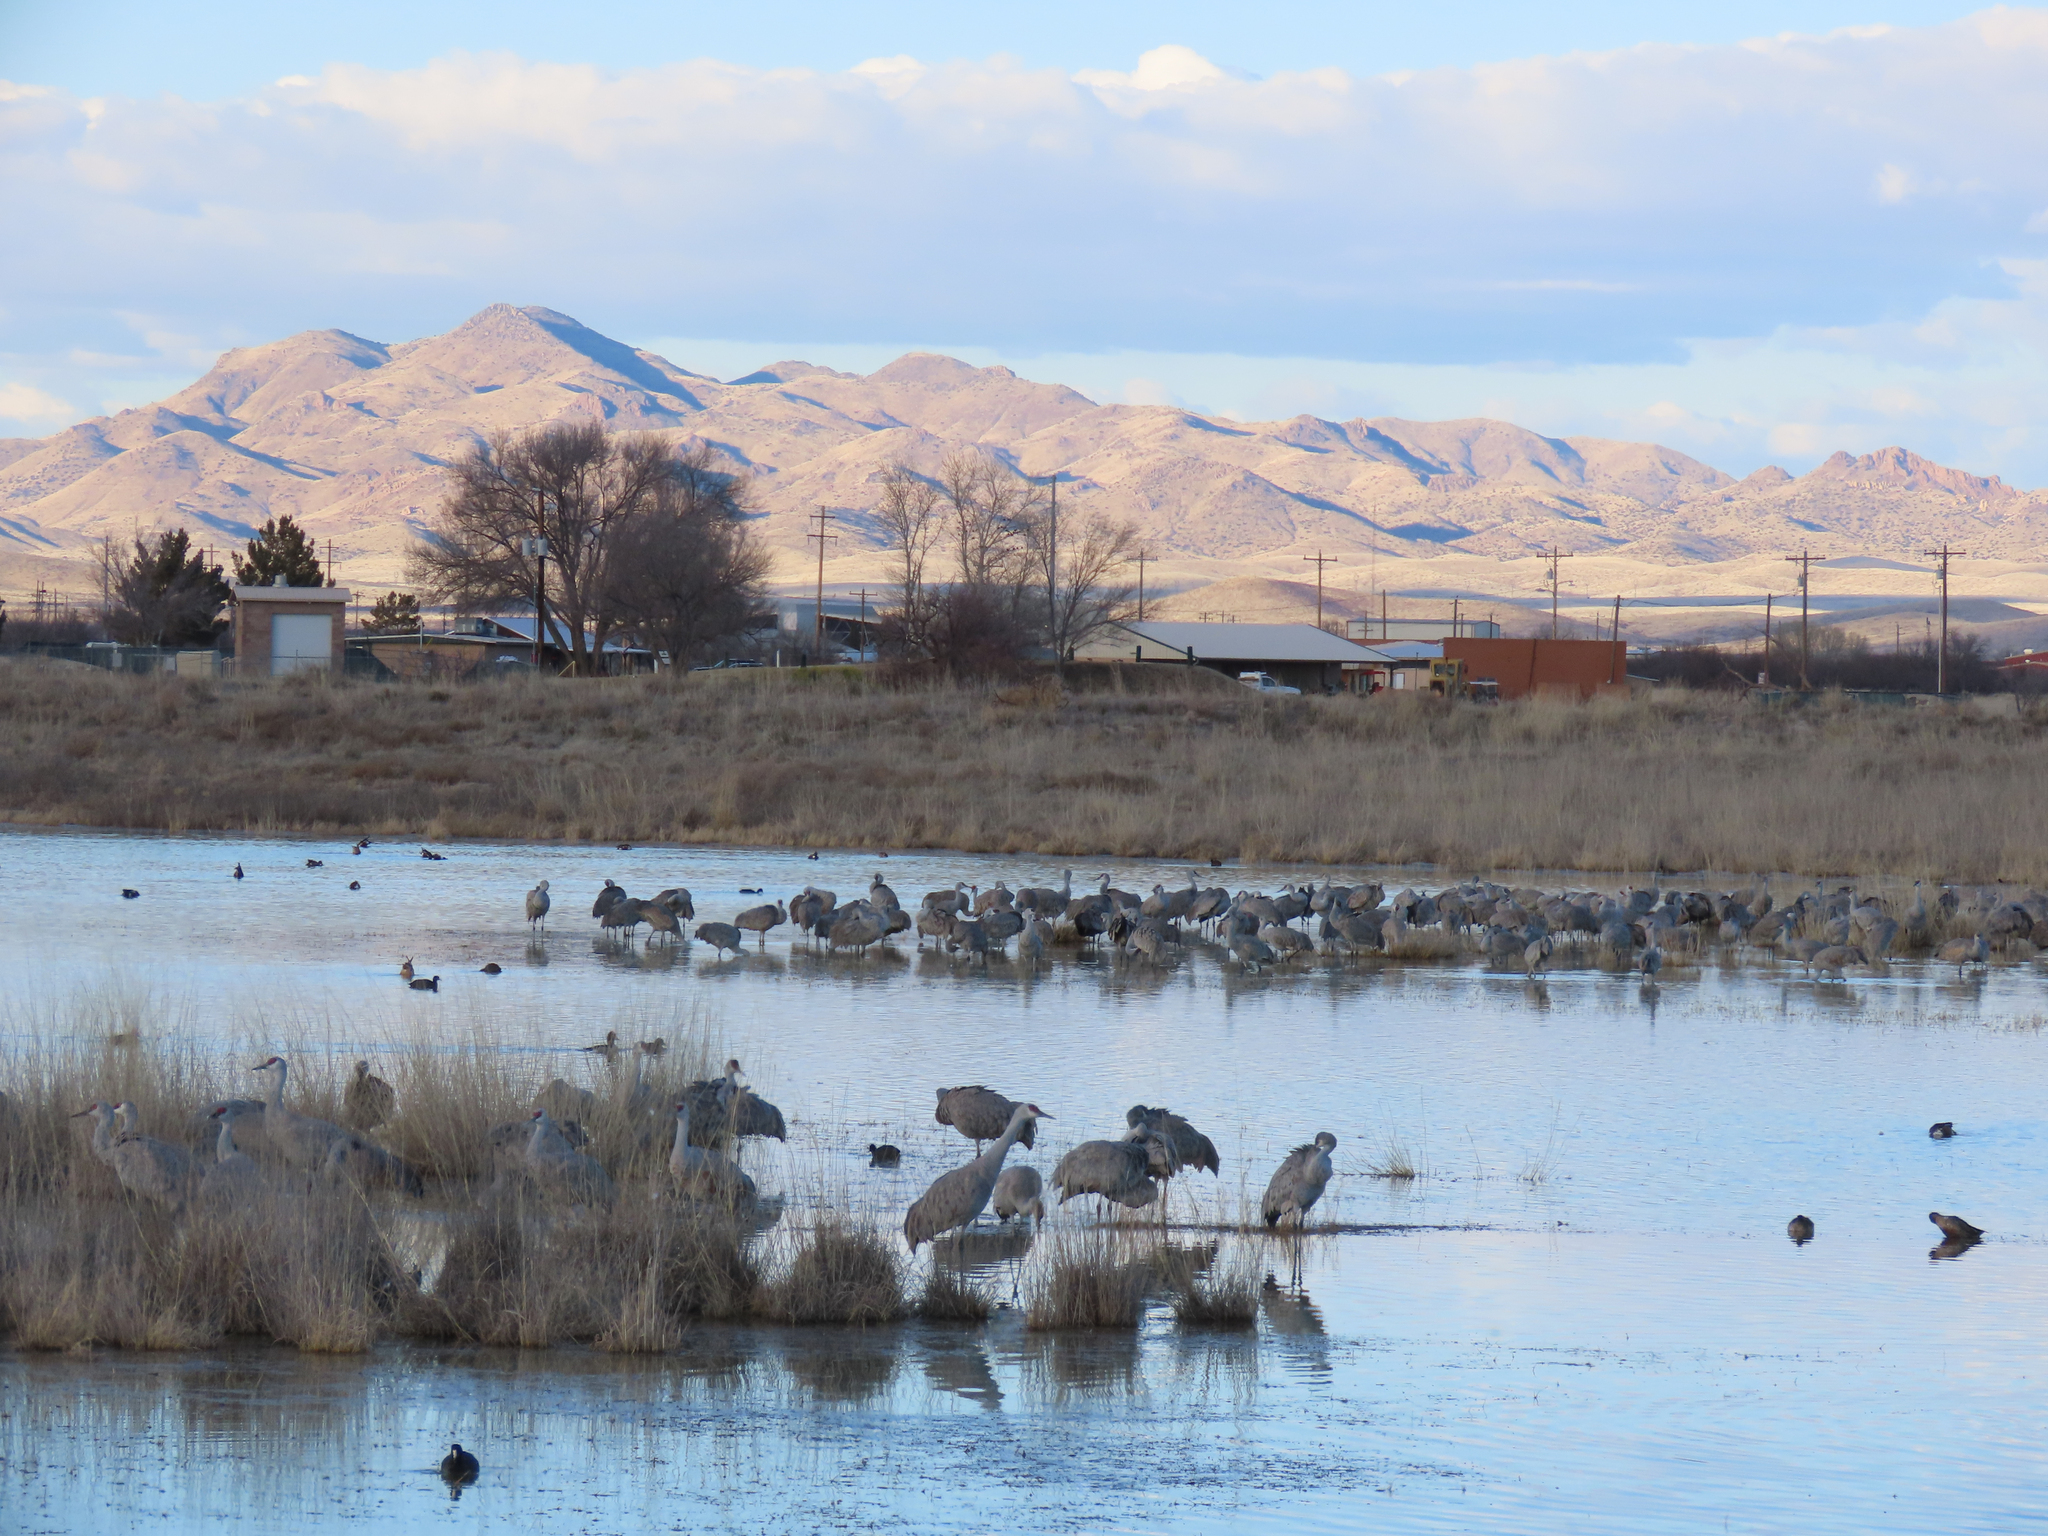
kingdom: Animalia
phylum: Chordata
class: Aves
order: Gruiformes
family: Gruidae
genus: Grus
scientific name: Grus canadensis
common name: Sandhill crane
